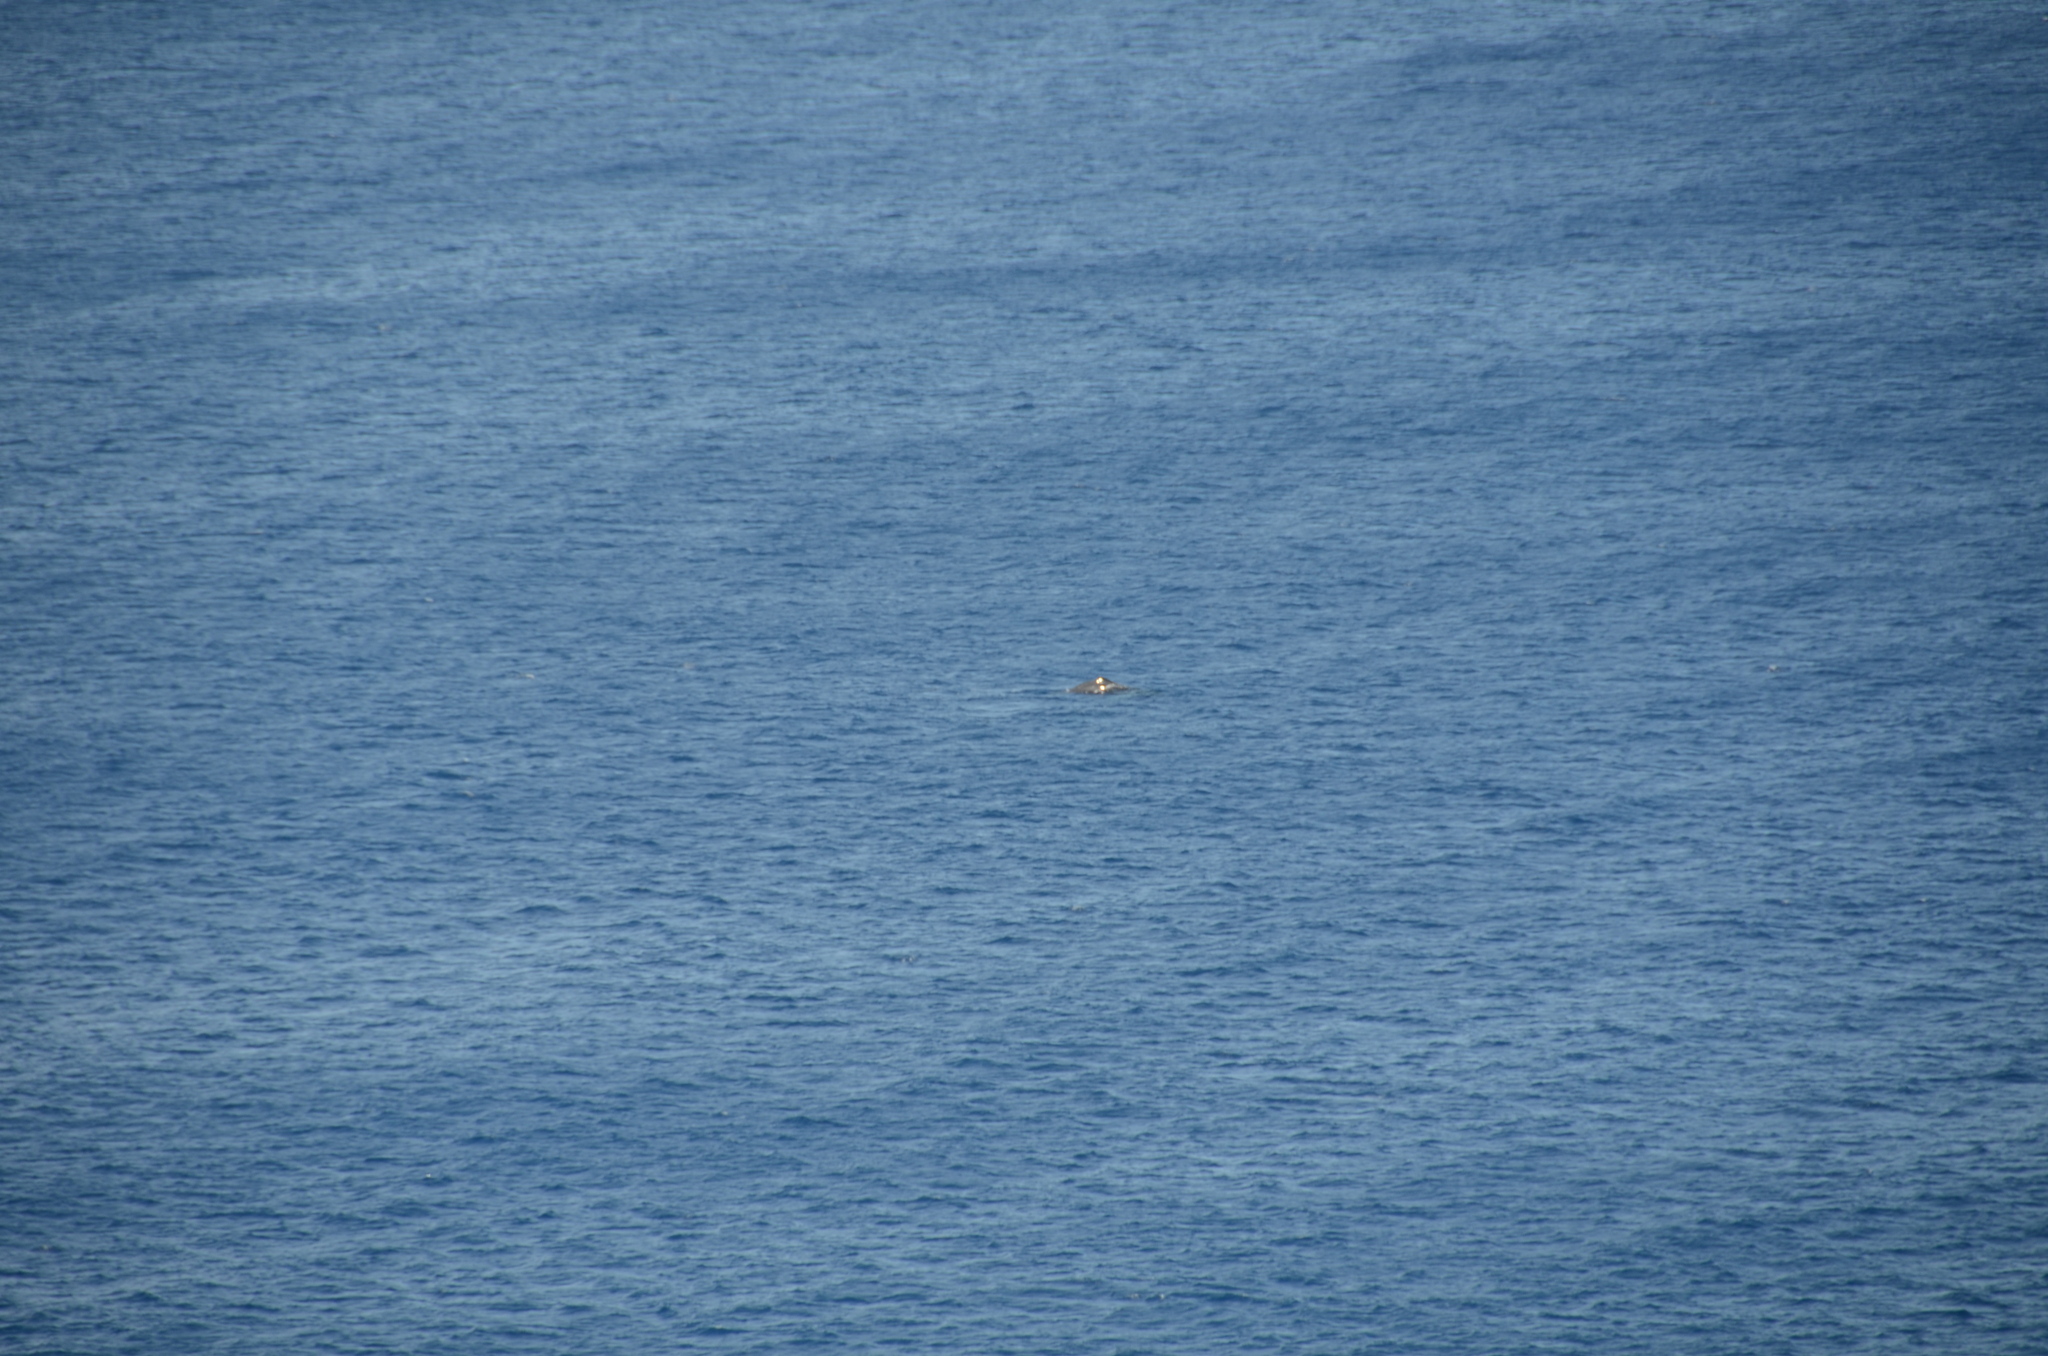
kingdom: Animalia
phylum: Chordata
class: Mammalia
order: Cetacea
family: Balaenopteridae
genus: Megaptera
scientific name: Megaptera novaeangliae
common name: Humpback whale
